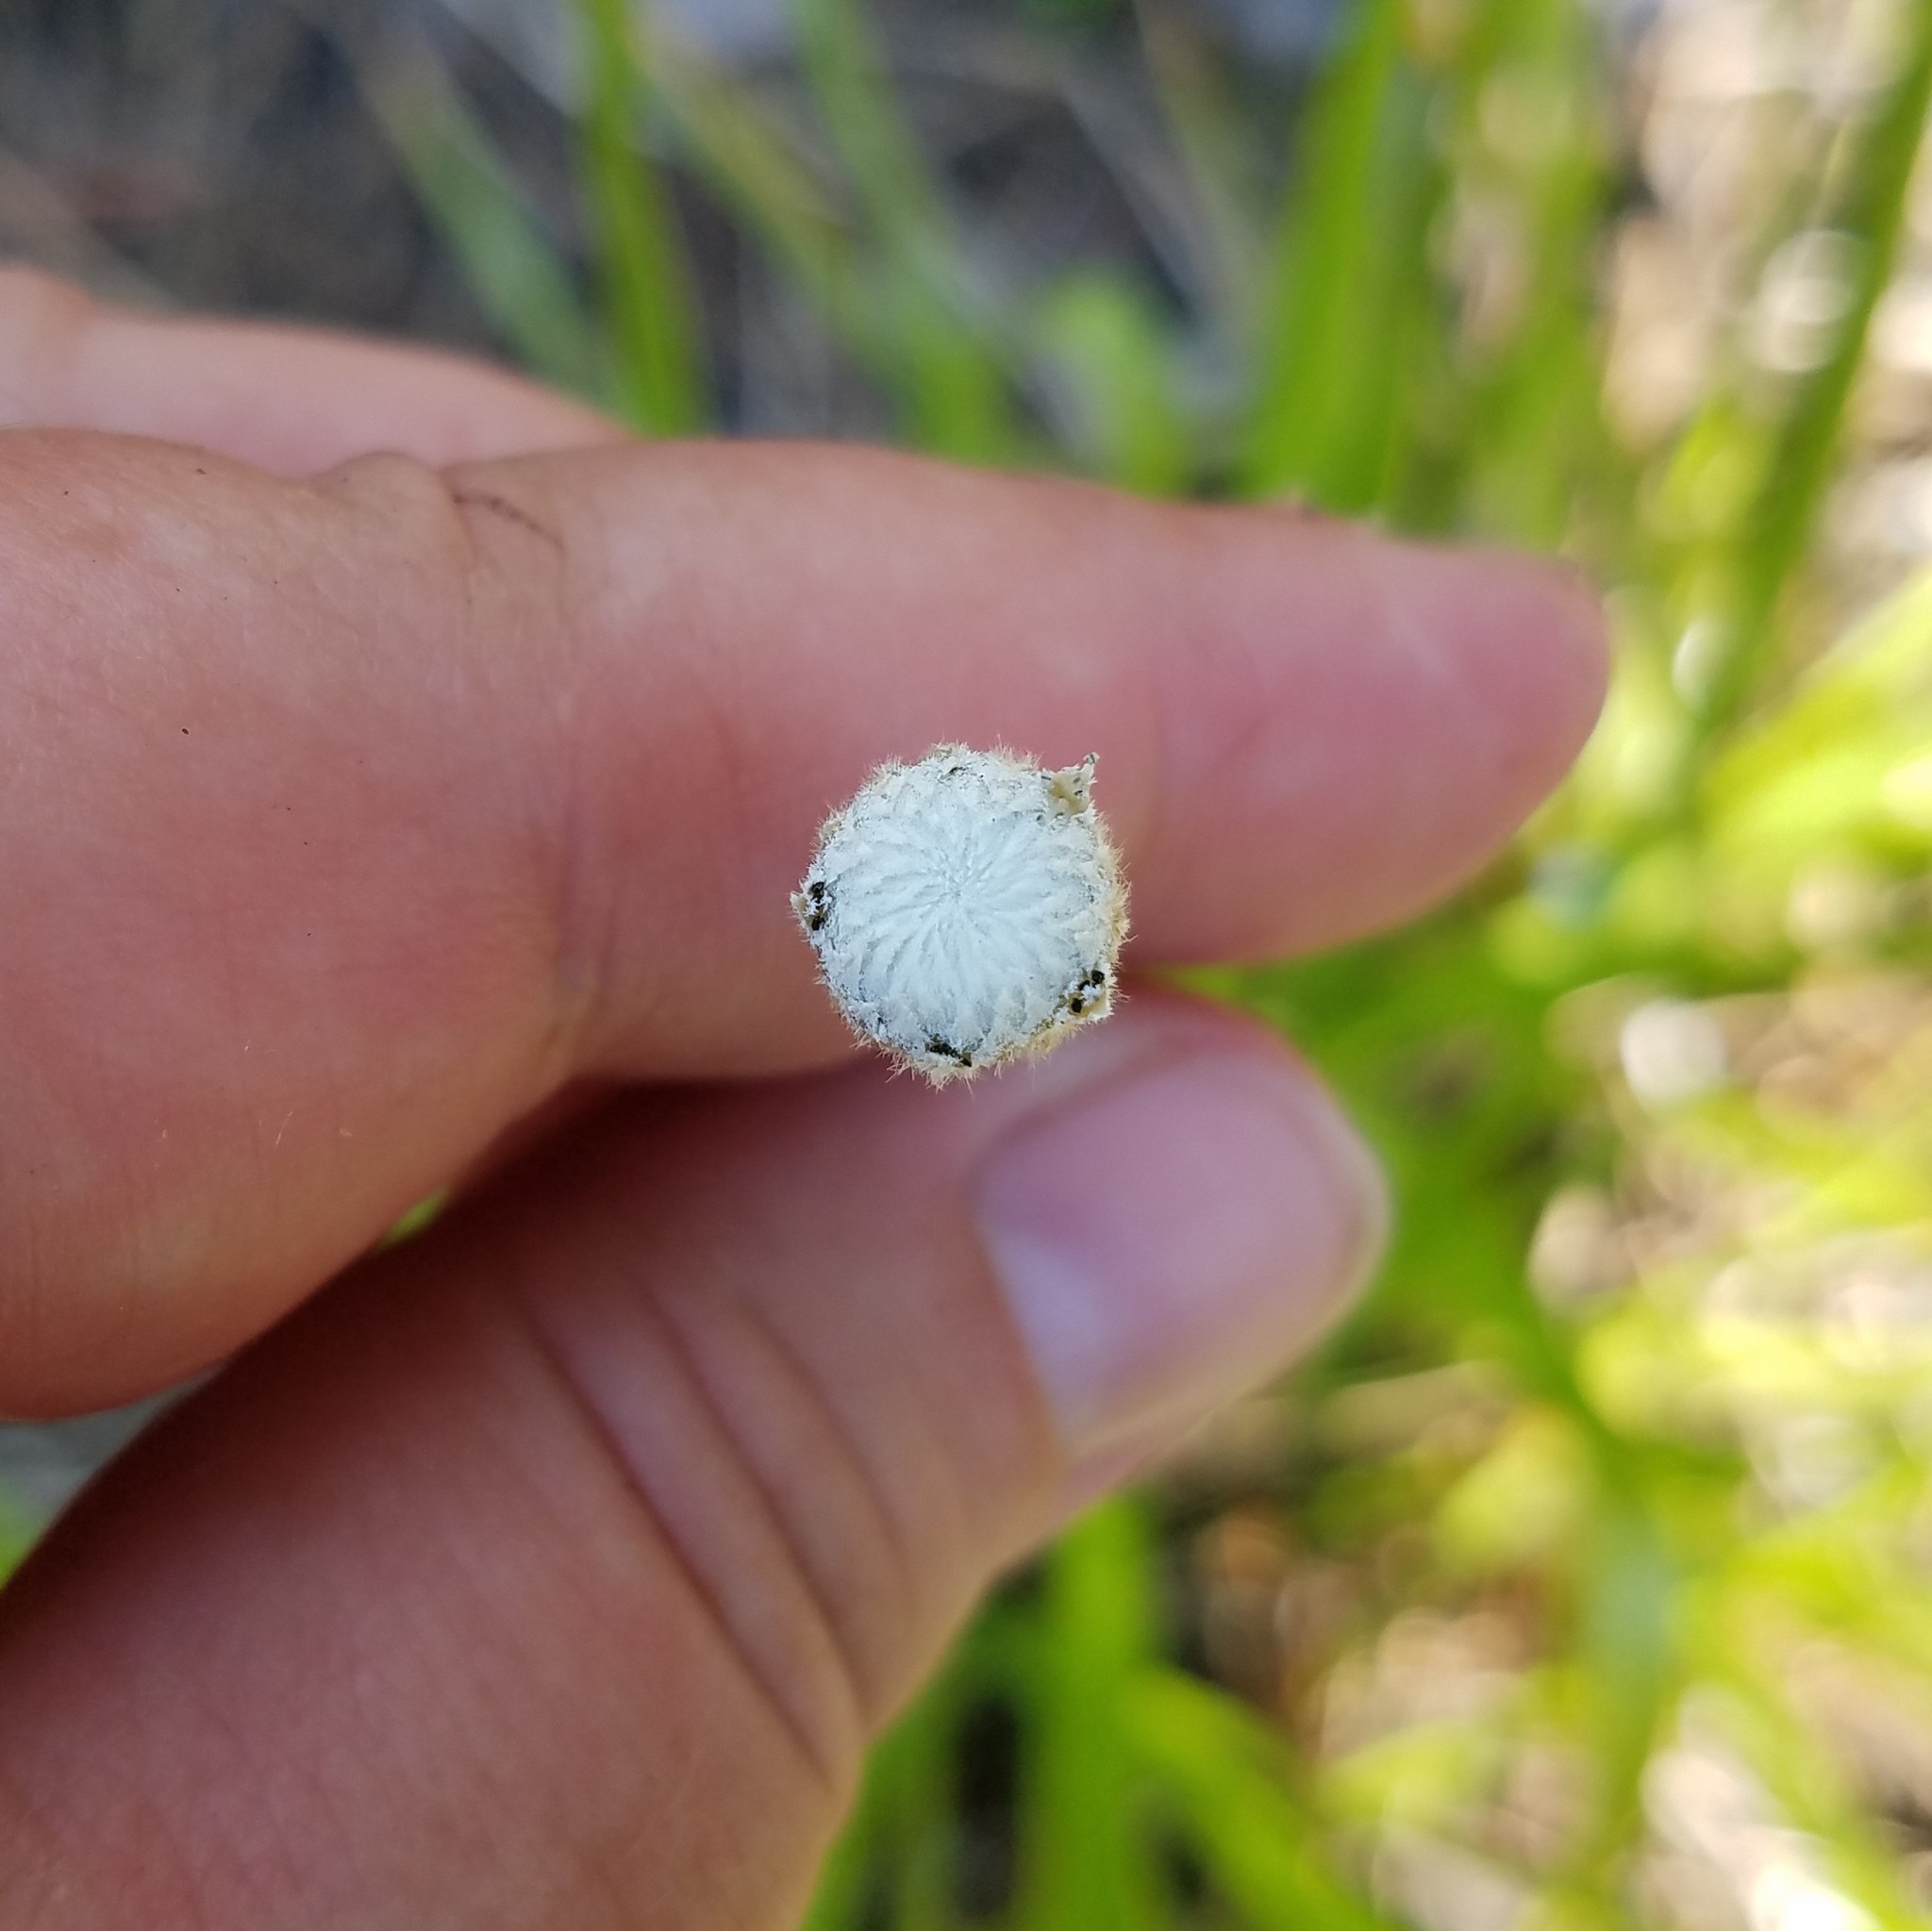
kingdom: Plantae
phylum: Tracheophyta
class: Liliopsida
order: Poales
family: Eriocaulaceae
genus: Eriocaulon
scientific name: Eriocaulon decangulare
